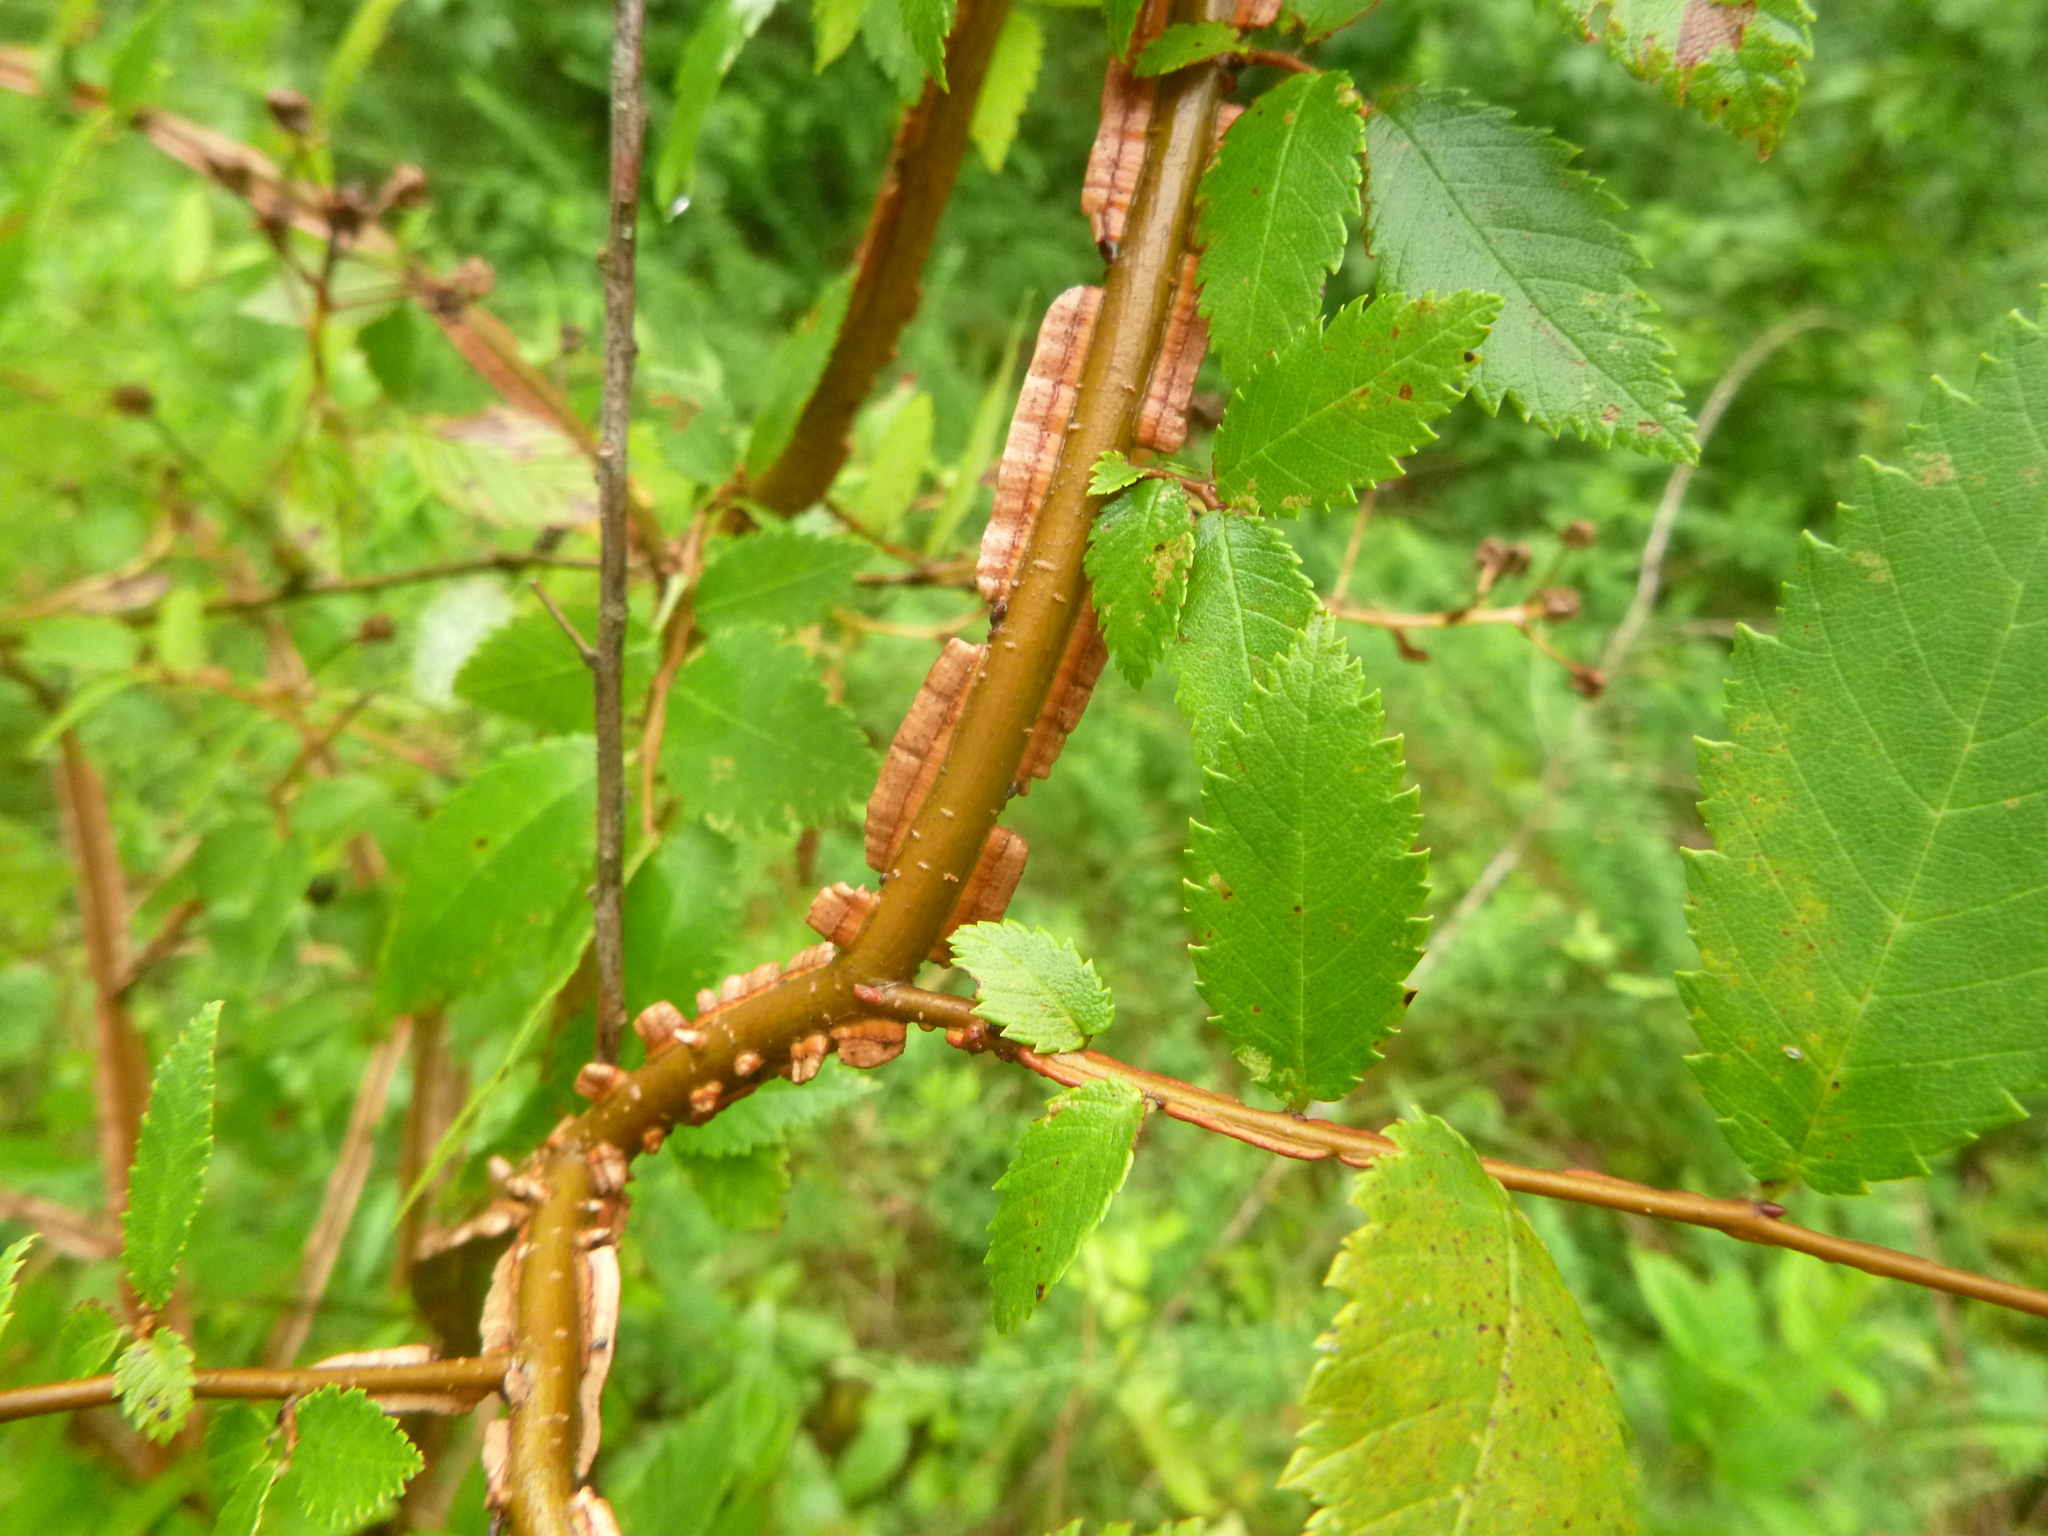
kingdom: Plantae
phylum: Tracheophyta
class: Magnoliopsida
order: Rosales
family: Ulmaceae
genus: Ulmus
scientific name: Ulmus alata
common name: Winged elm
